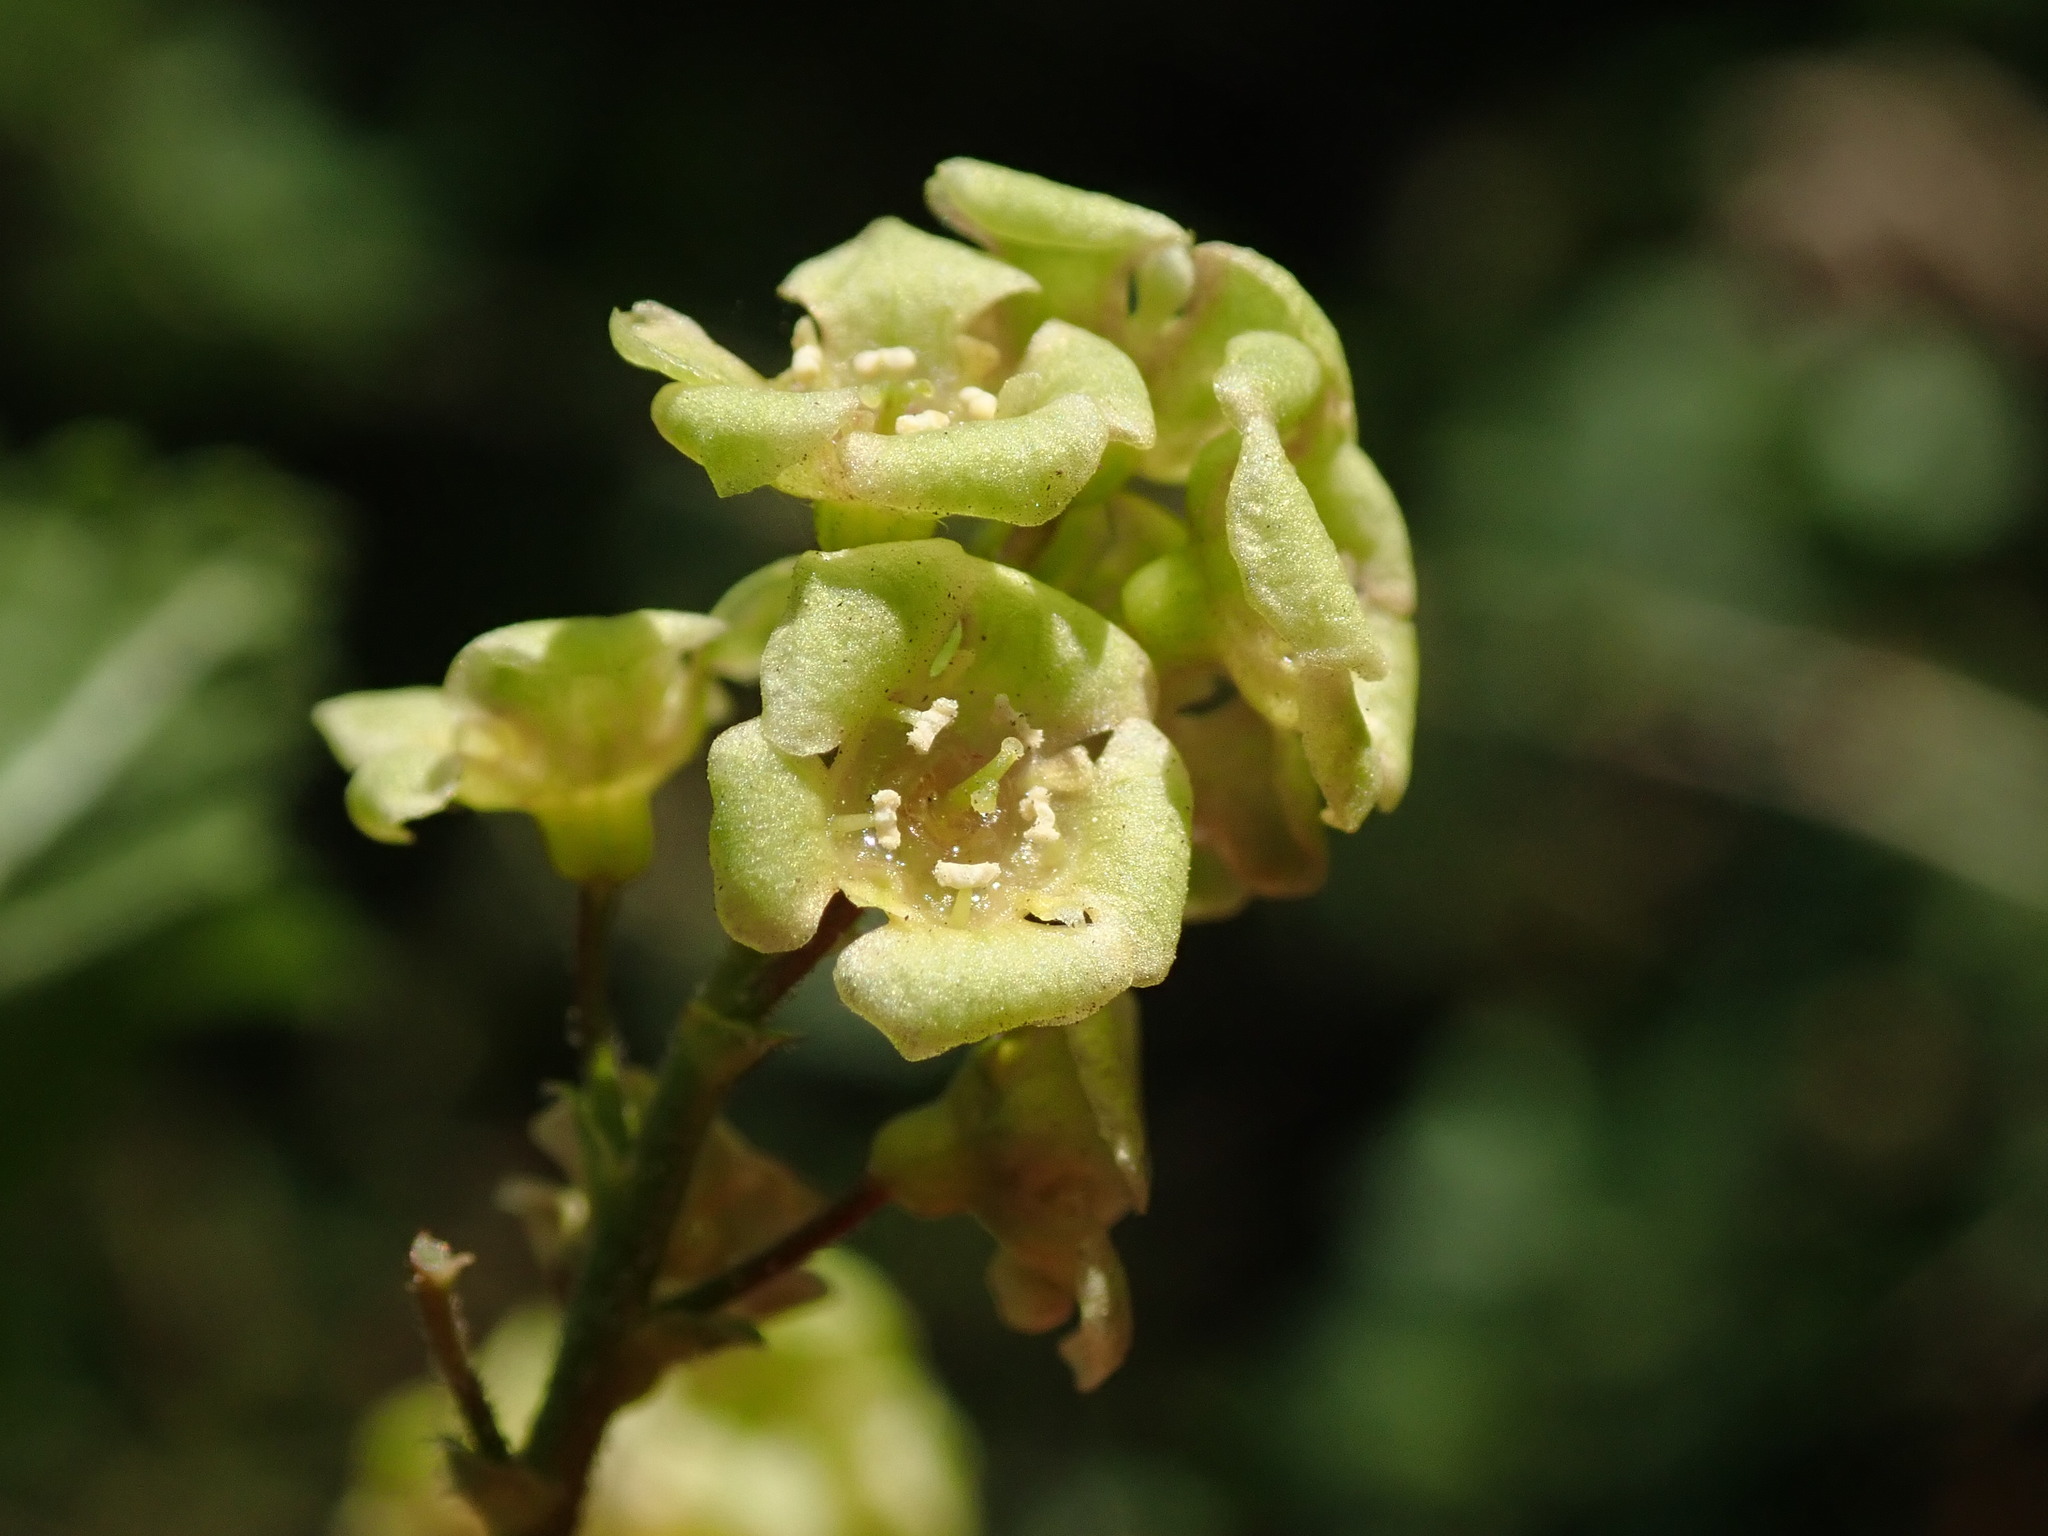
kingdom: Plantae
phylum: Tracheophyta
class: Magnoliopsida
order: Saxifragales
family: Grossulariaceae
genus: Ribes
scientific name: Ribes rubrum
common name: Red currant
